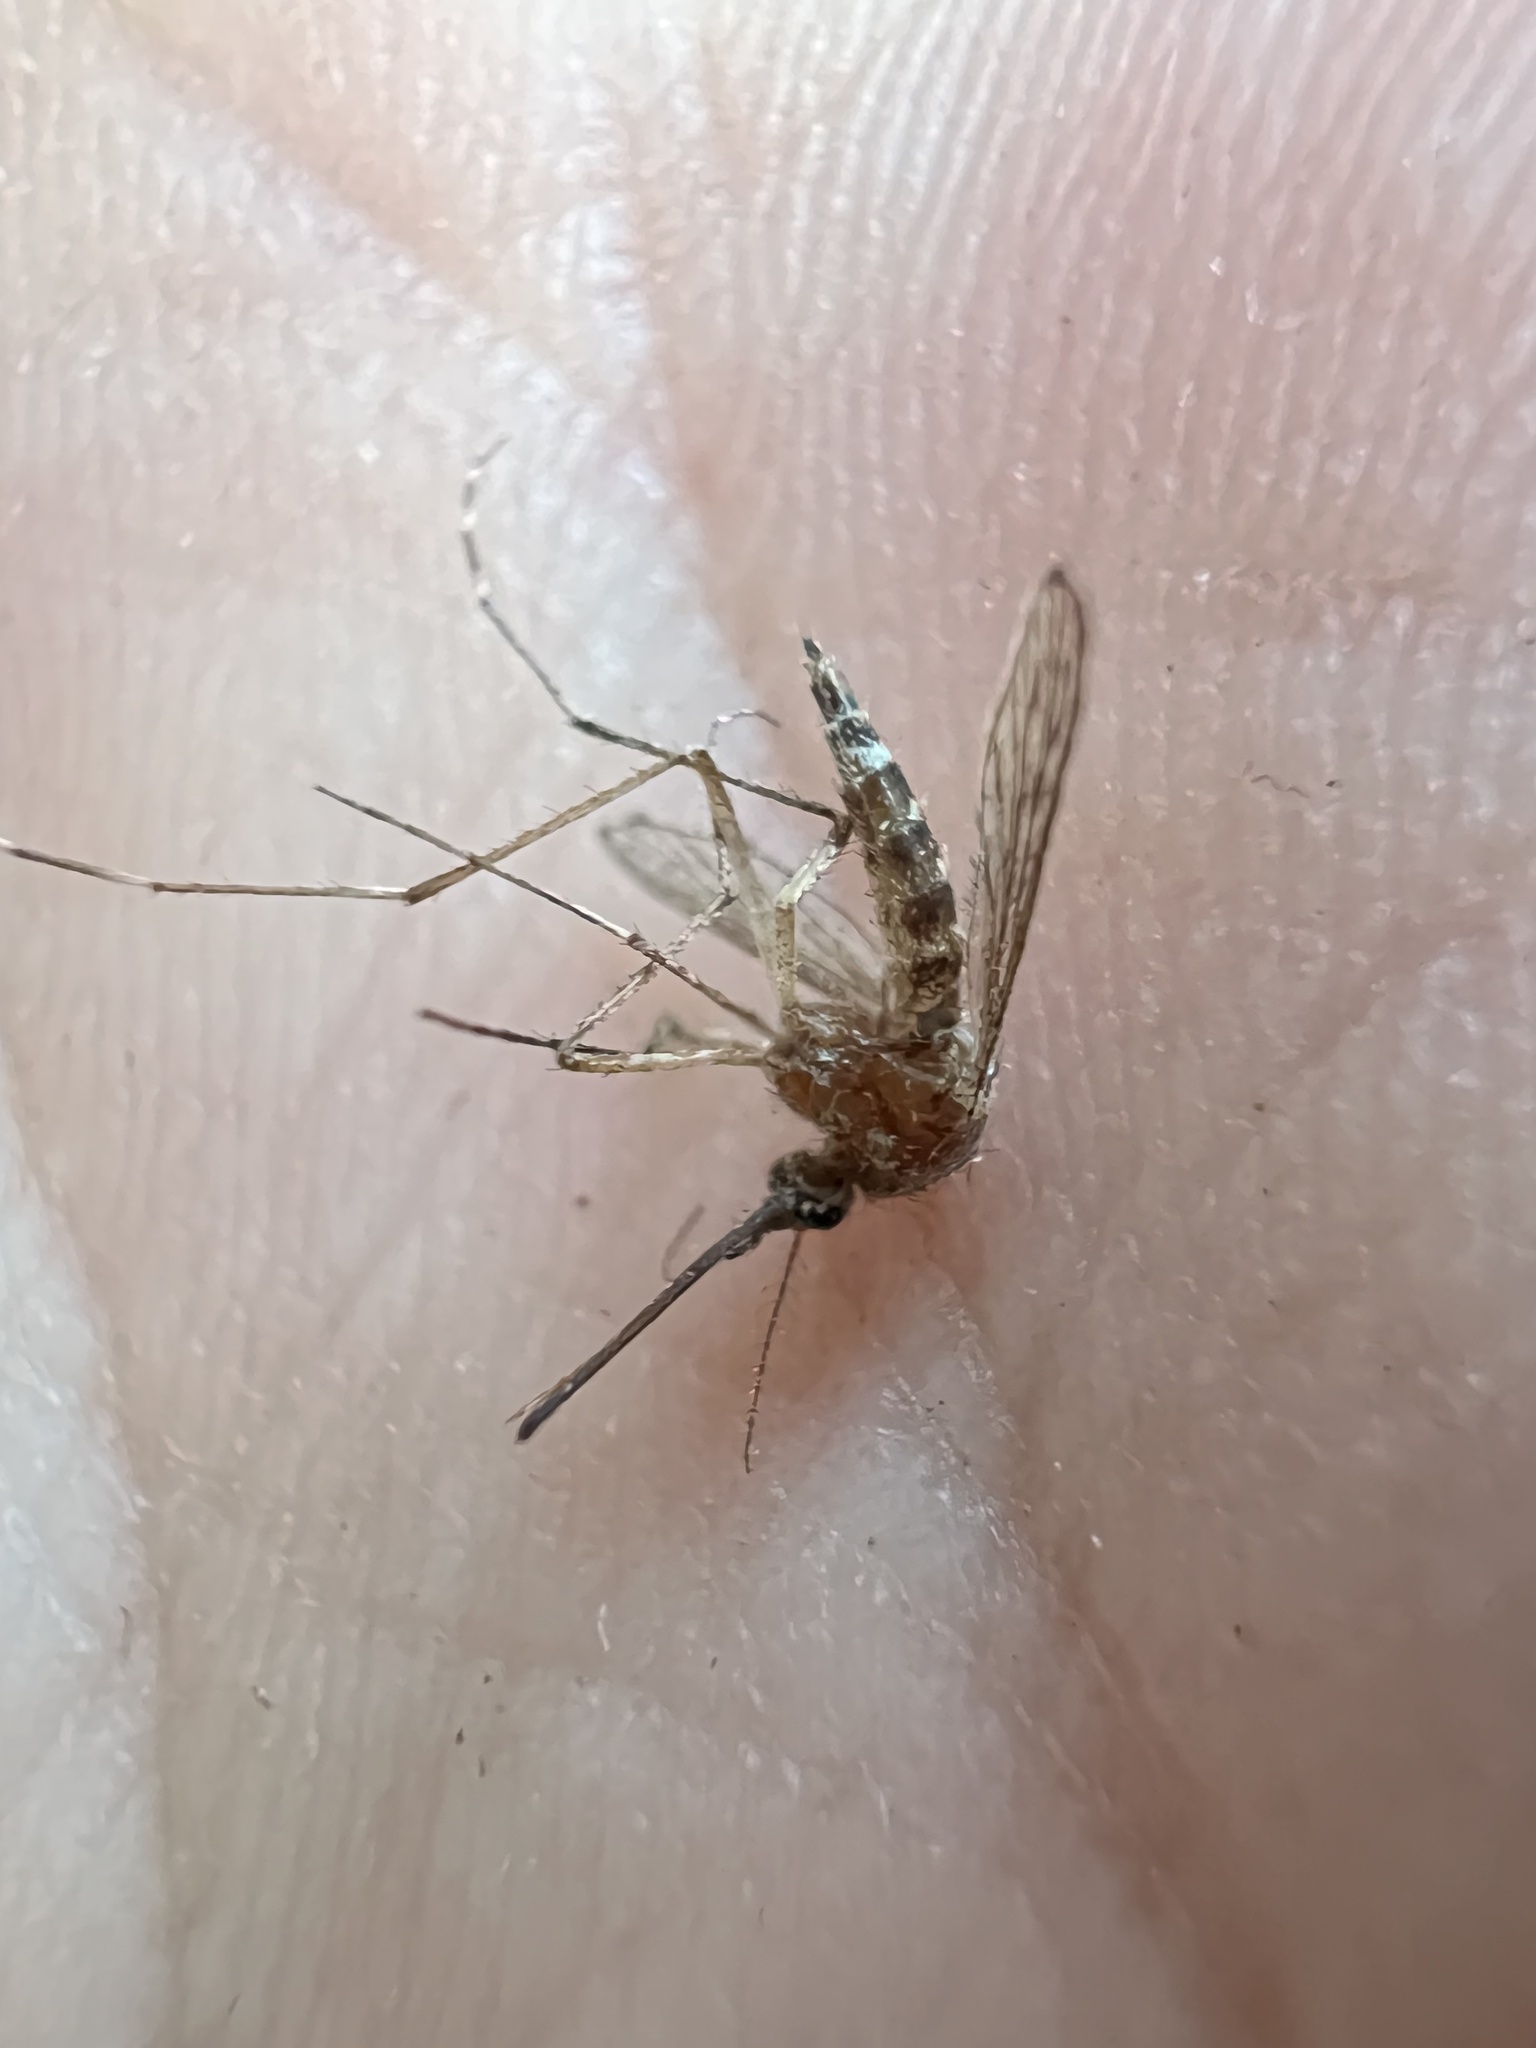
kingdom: Animalia
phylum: Arthropoda
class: Insecta
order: Diptera
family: Culicidae
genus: Aedes
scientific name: Aedes increpitus
